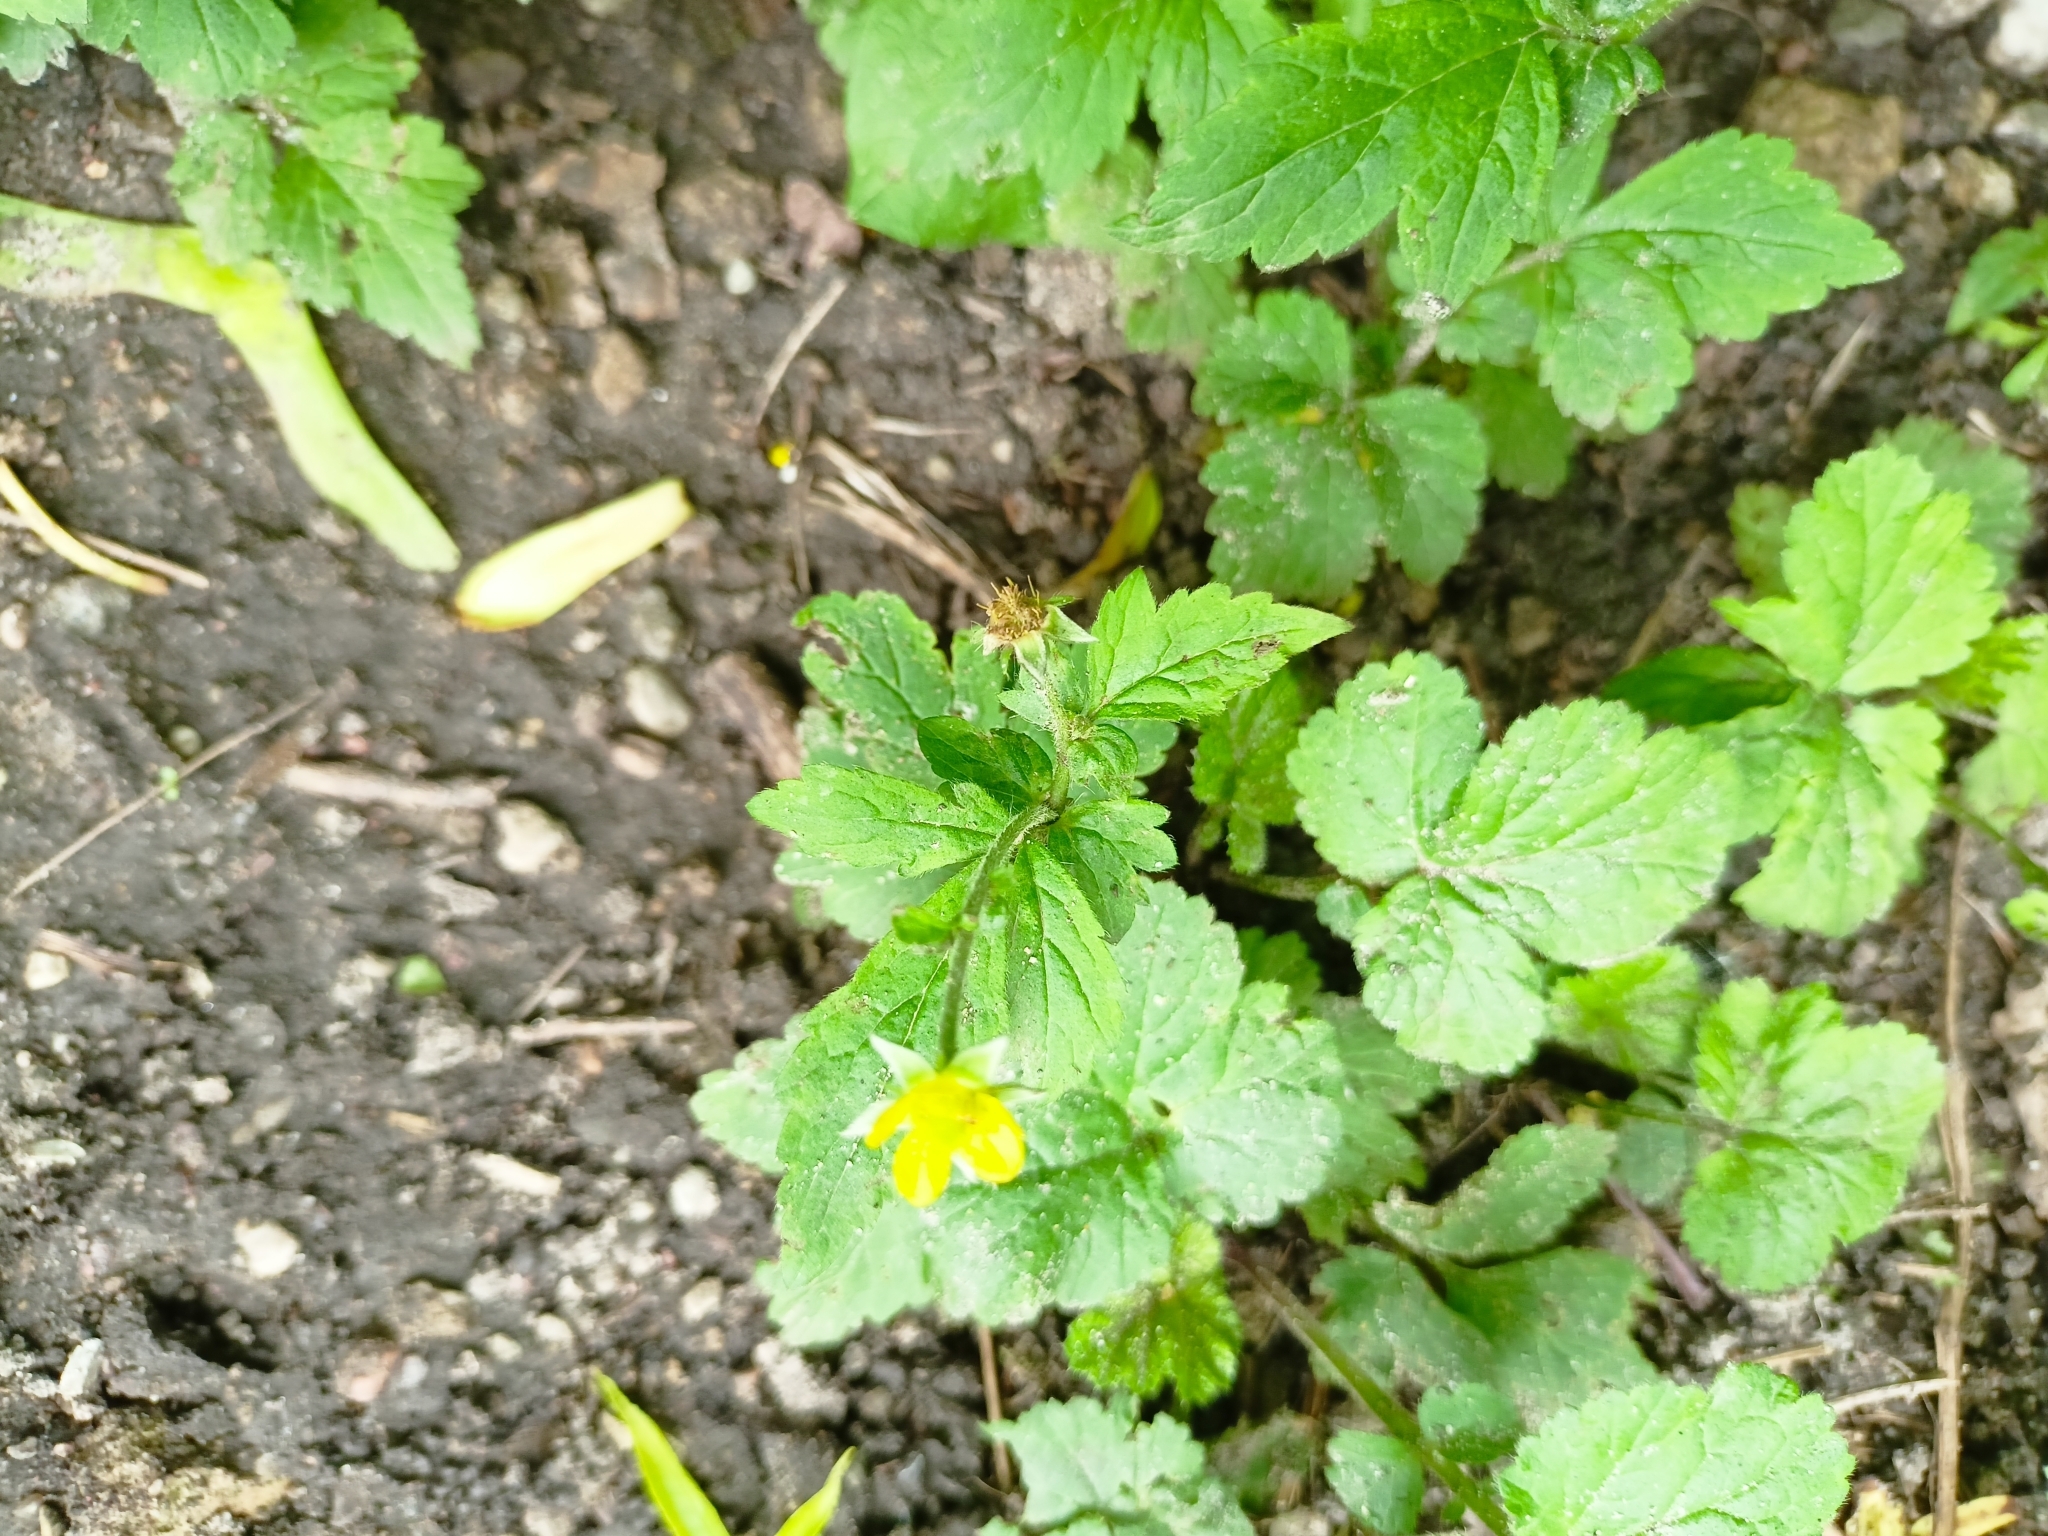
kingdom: Plantae
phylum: Tracheophyta
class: Magnoliopsida
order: Rosales
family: Rosaceae
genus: Geum
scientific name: Geum urbanum
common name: Wood avens
